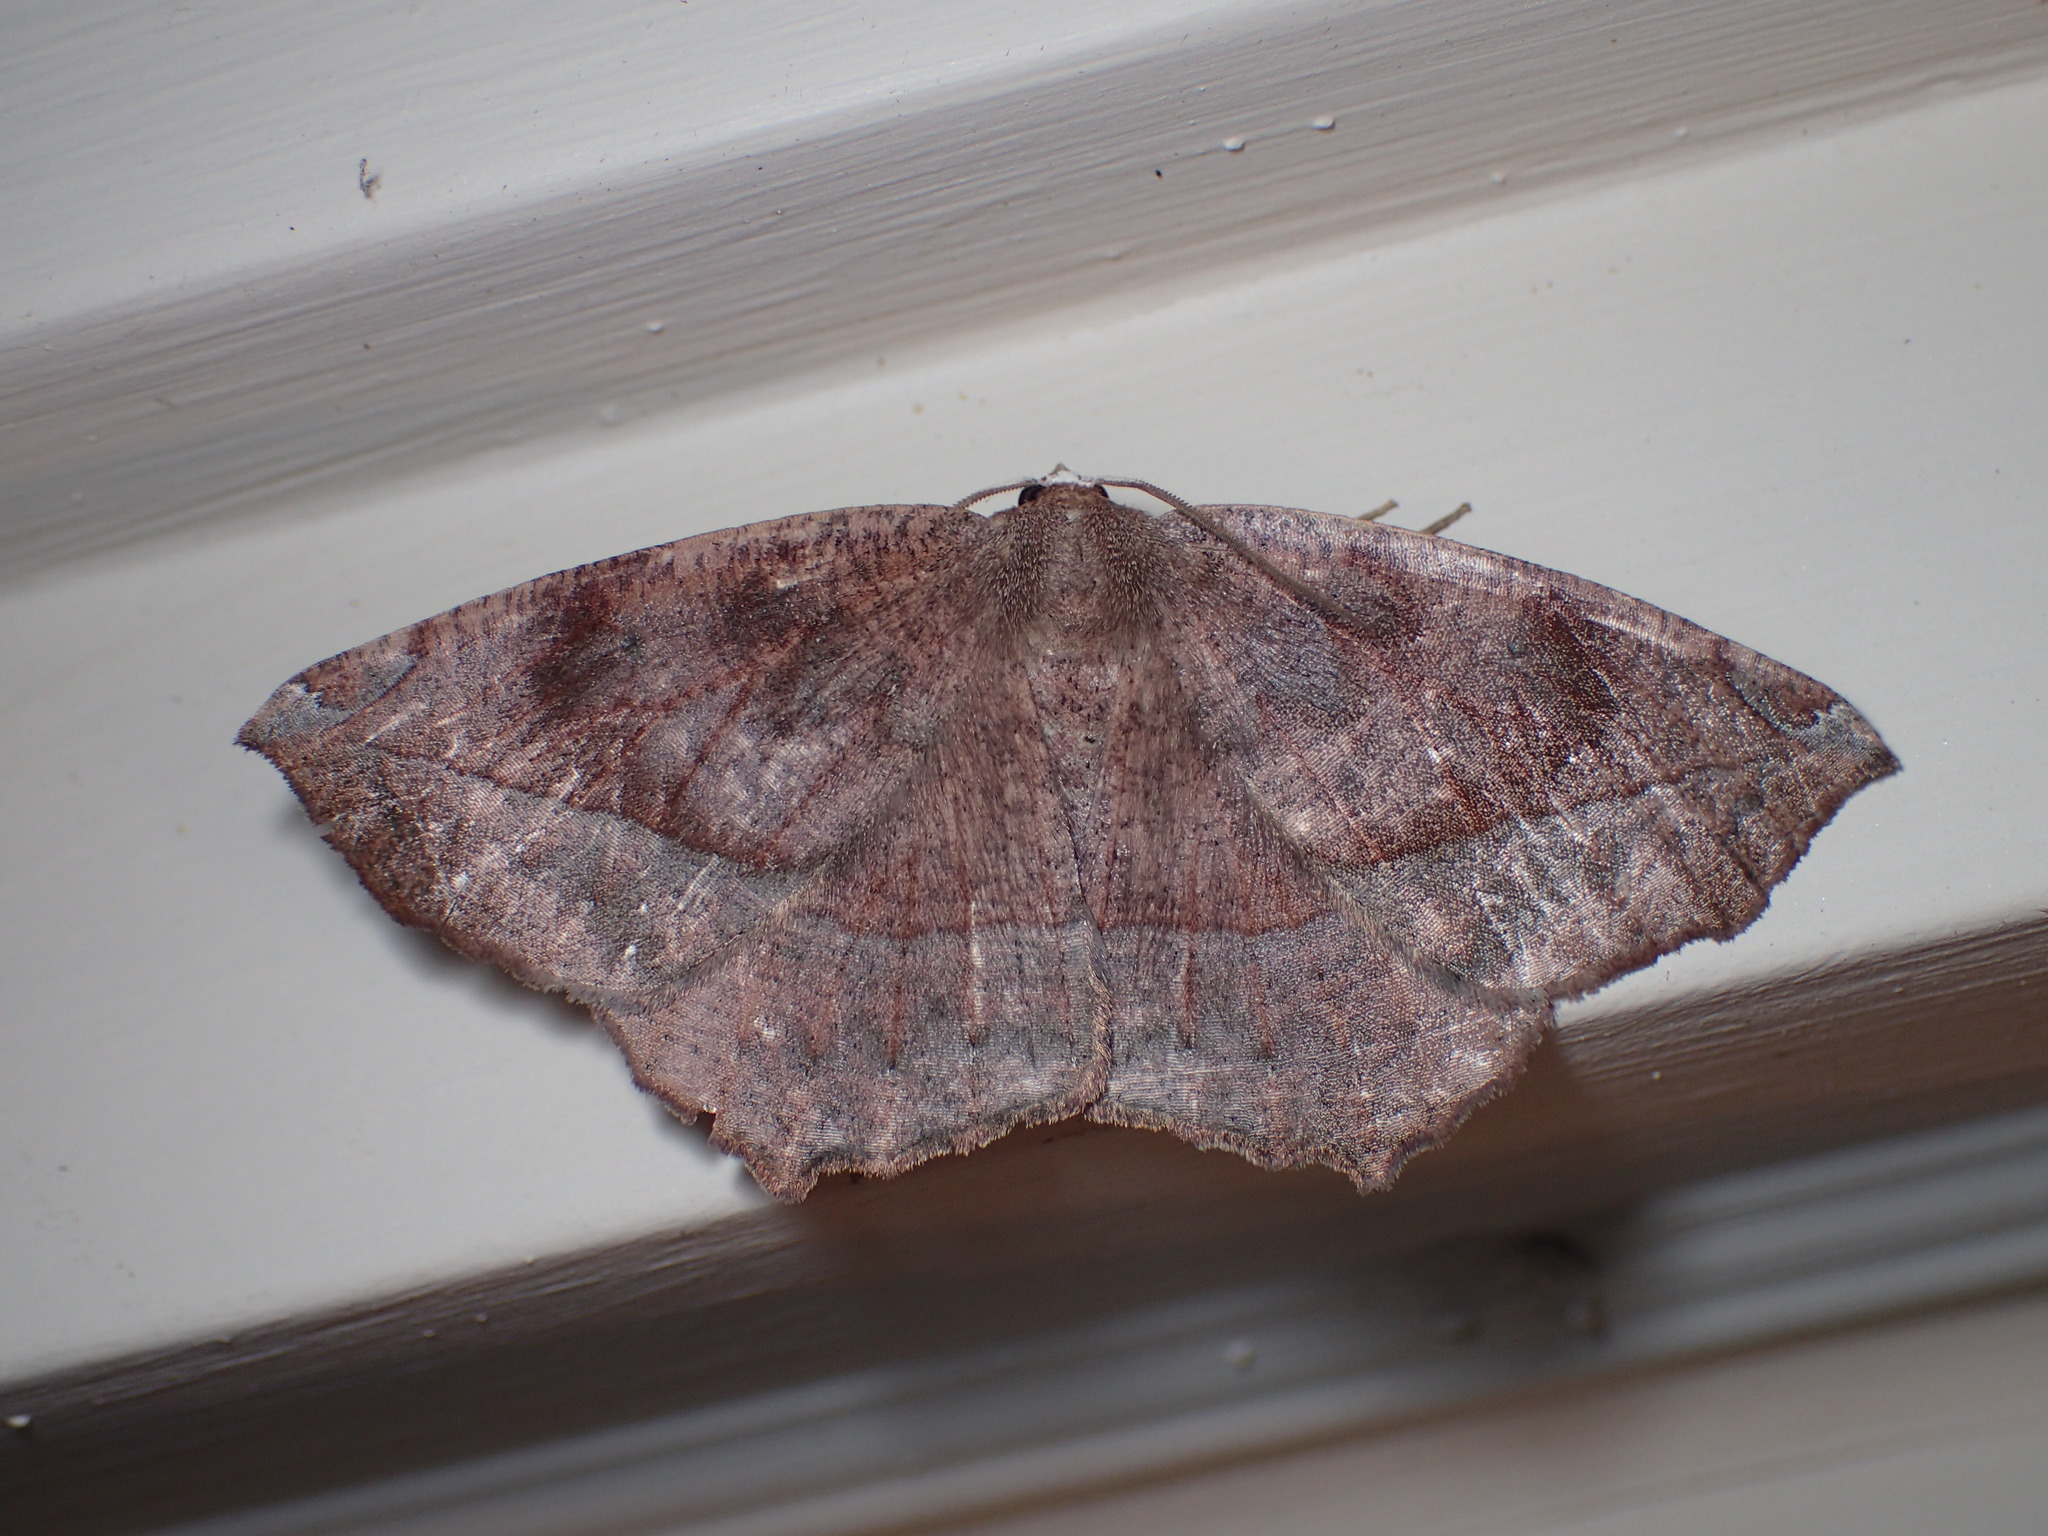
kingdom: Animalia
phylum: Arthropoda
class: Insecta
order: Lepidoptera
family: Geometridae
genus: Eutrapela
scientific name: Eutrapela clemataria
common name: Curved-toothed geometer
